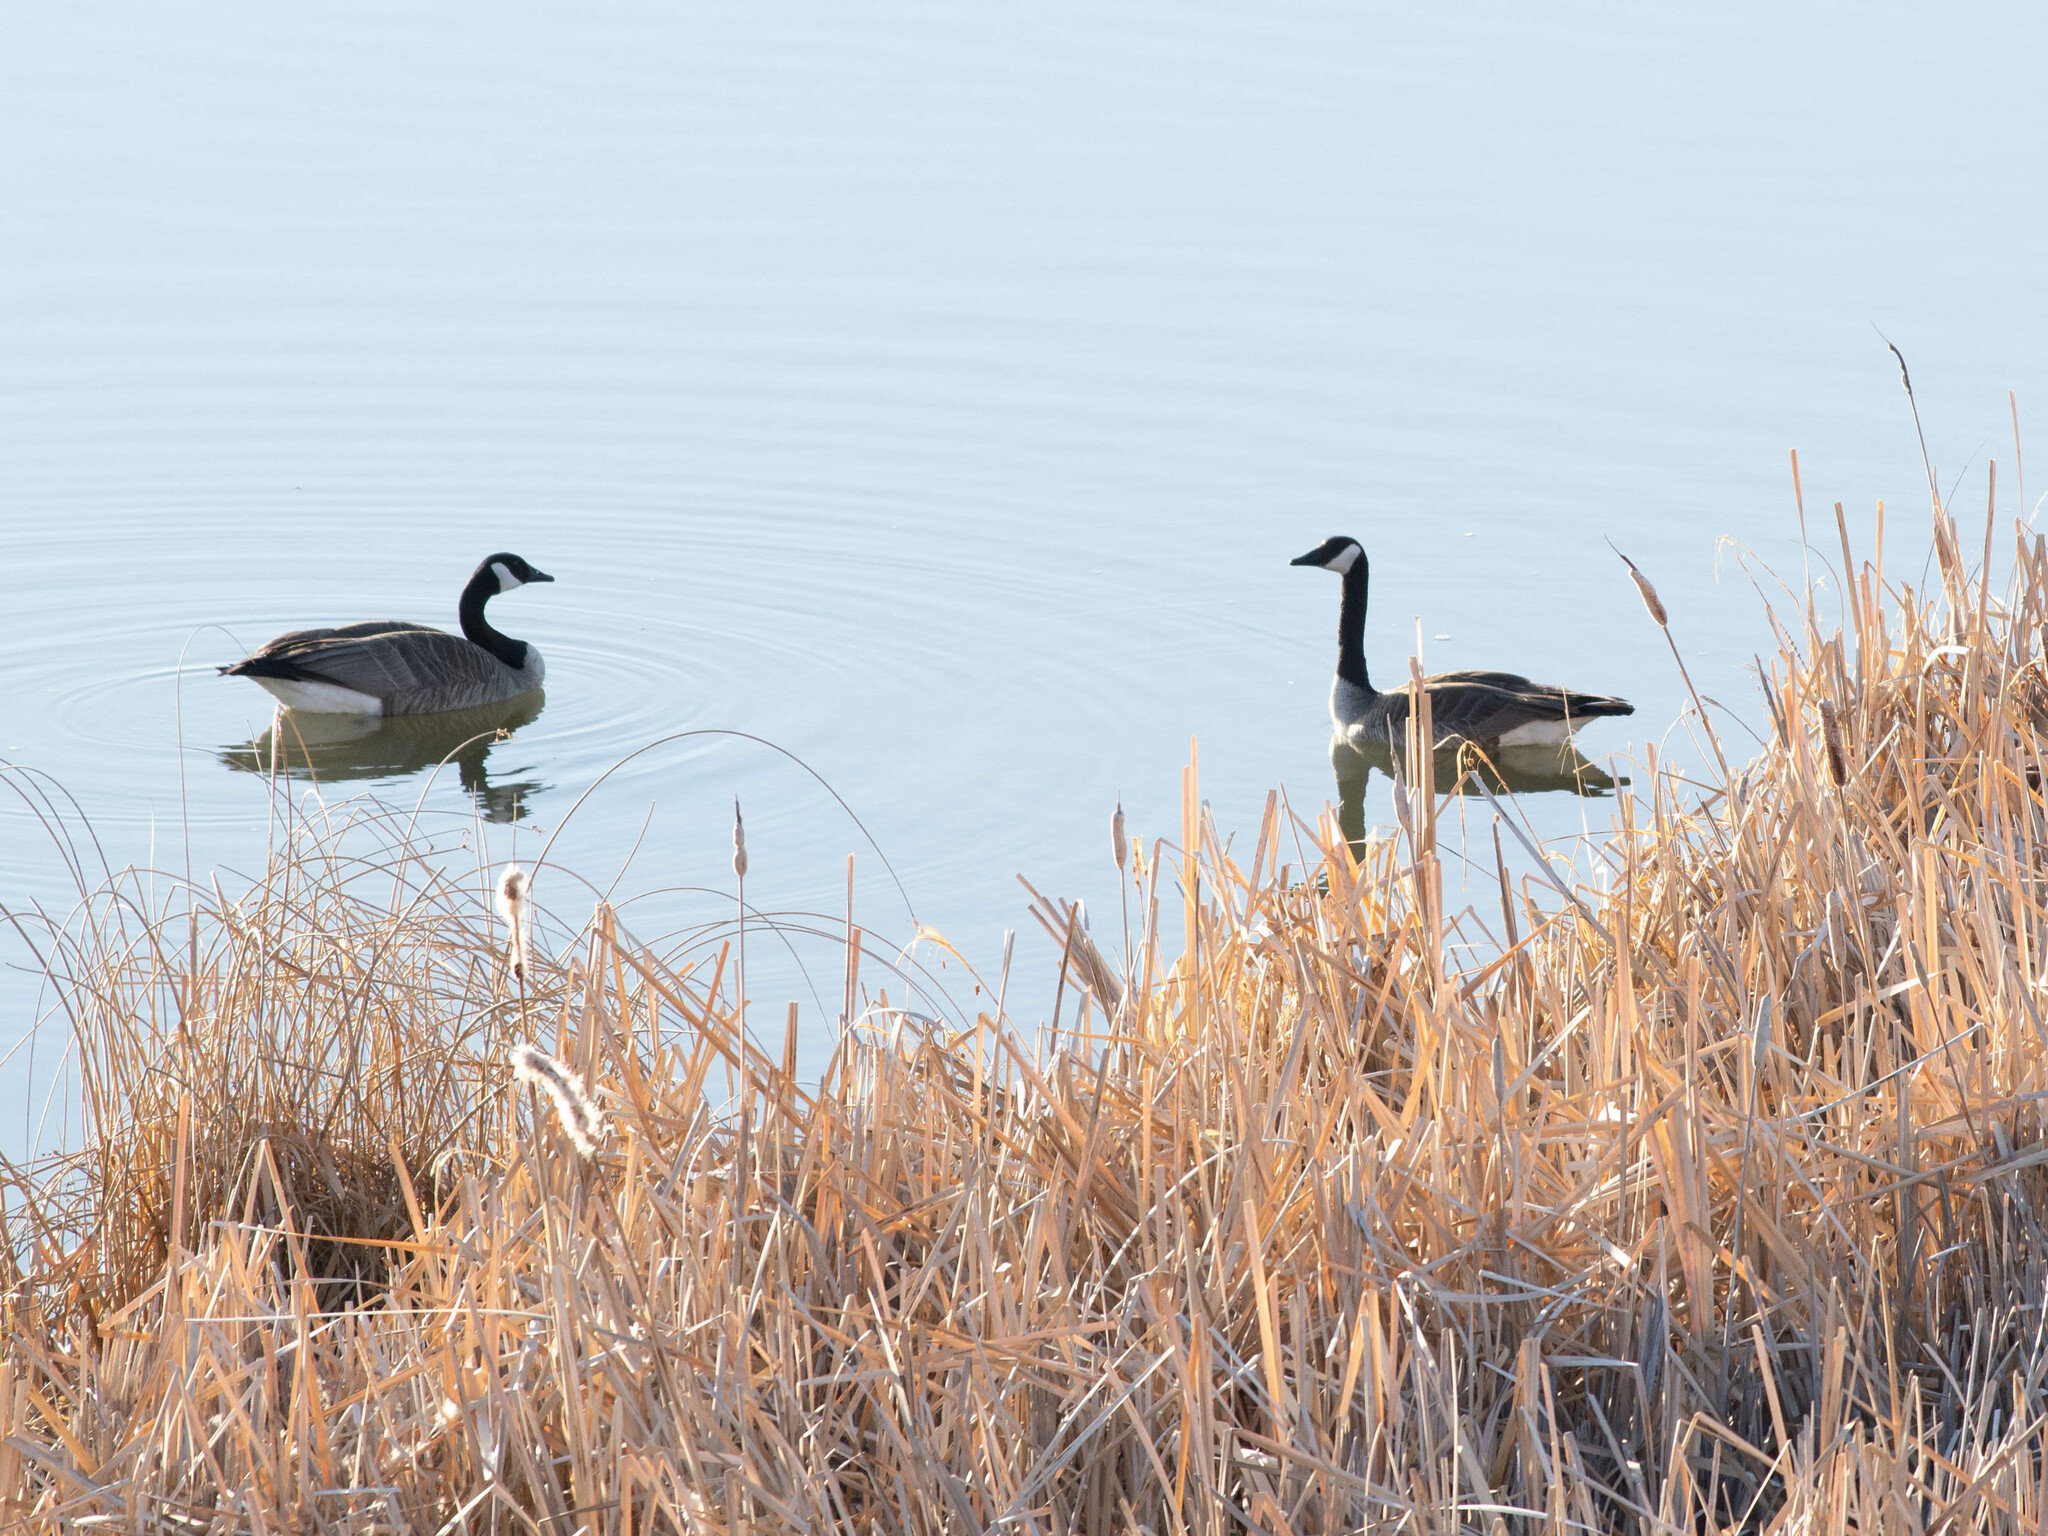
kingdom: Animalia
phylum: Chordata
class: Aves
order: Anseriformes
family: Anatidae
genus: Branta
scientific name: Branta canadensis
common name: Canada goose
